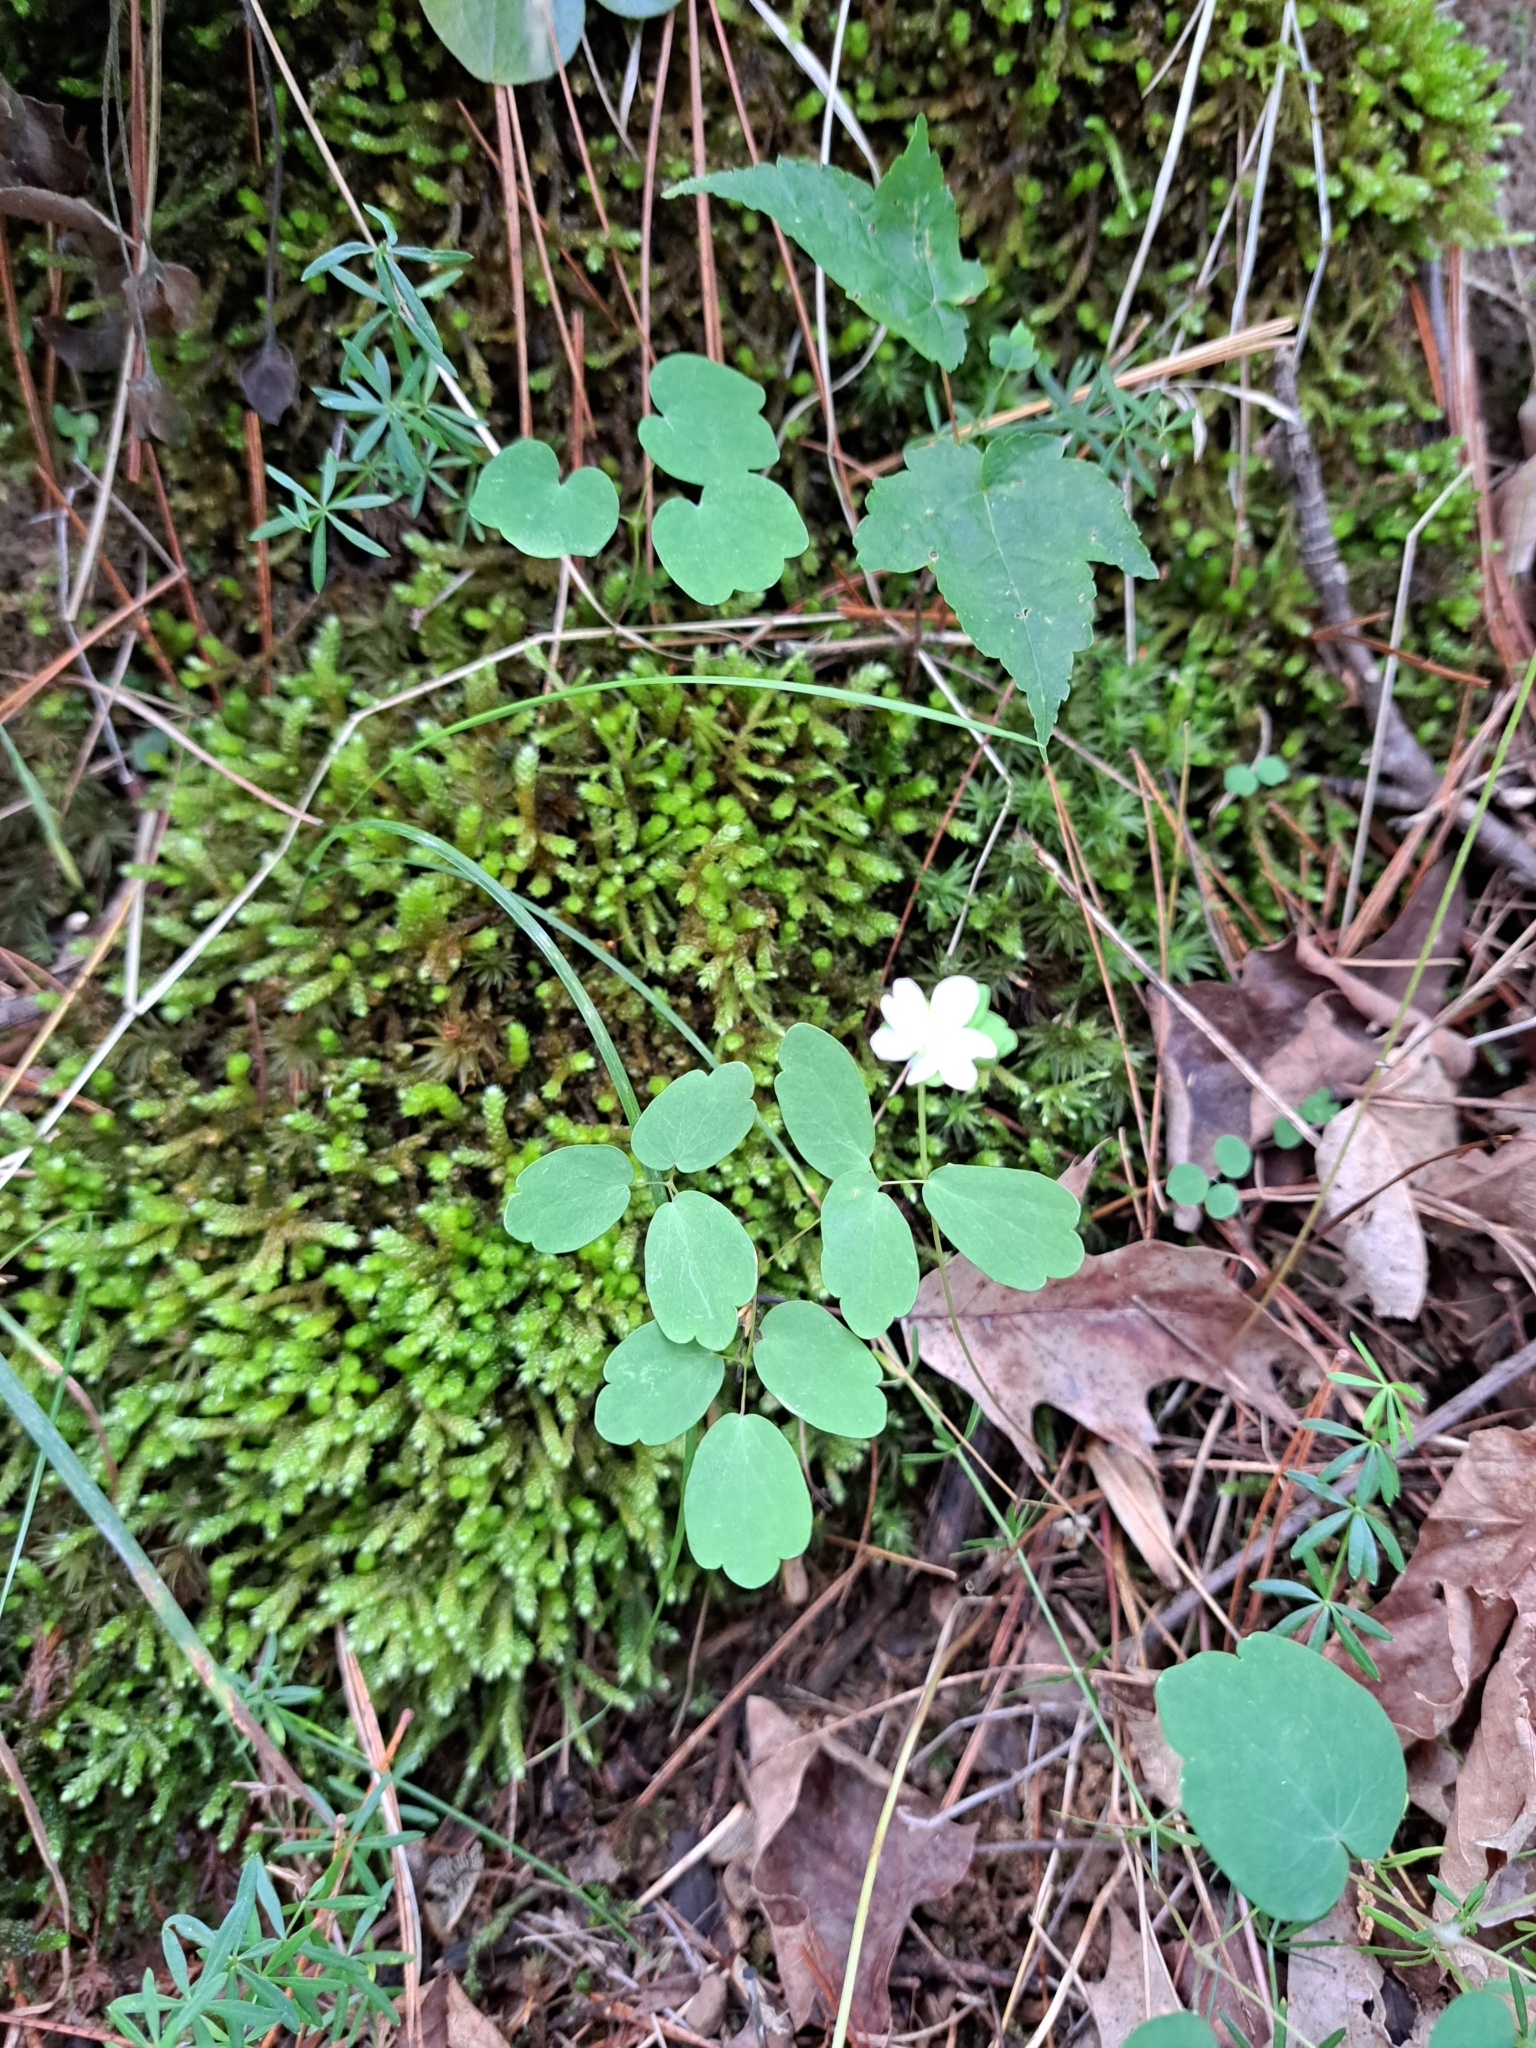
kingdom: Plantae
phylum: Tracheophyta
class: Magnoliopsida
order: Ranunculales
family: Ranunculaceae
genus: Thalictrum
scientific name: Thalictrum thalictroides
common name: Rue-anemone
